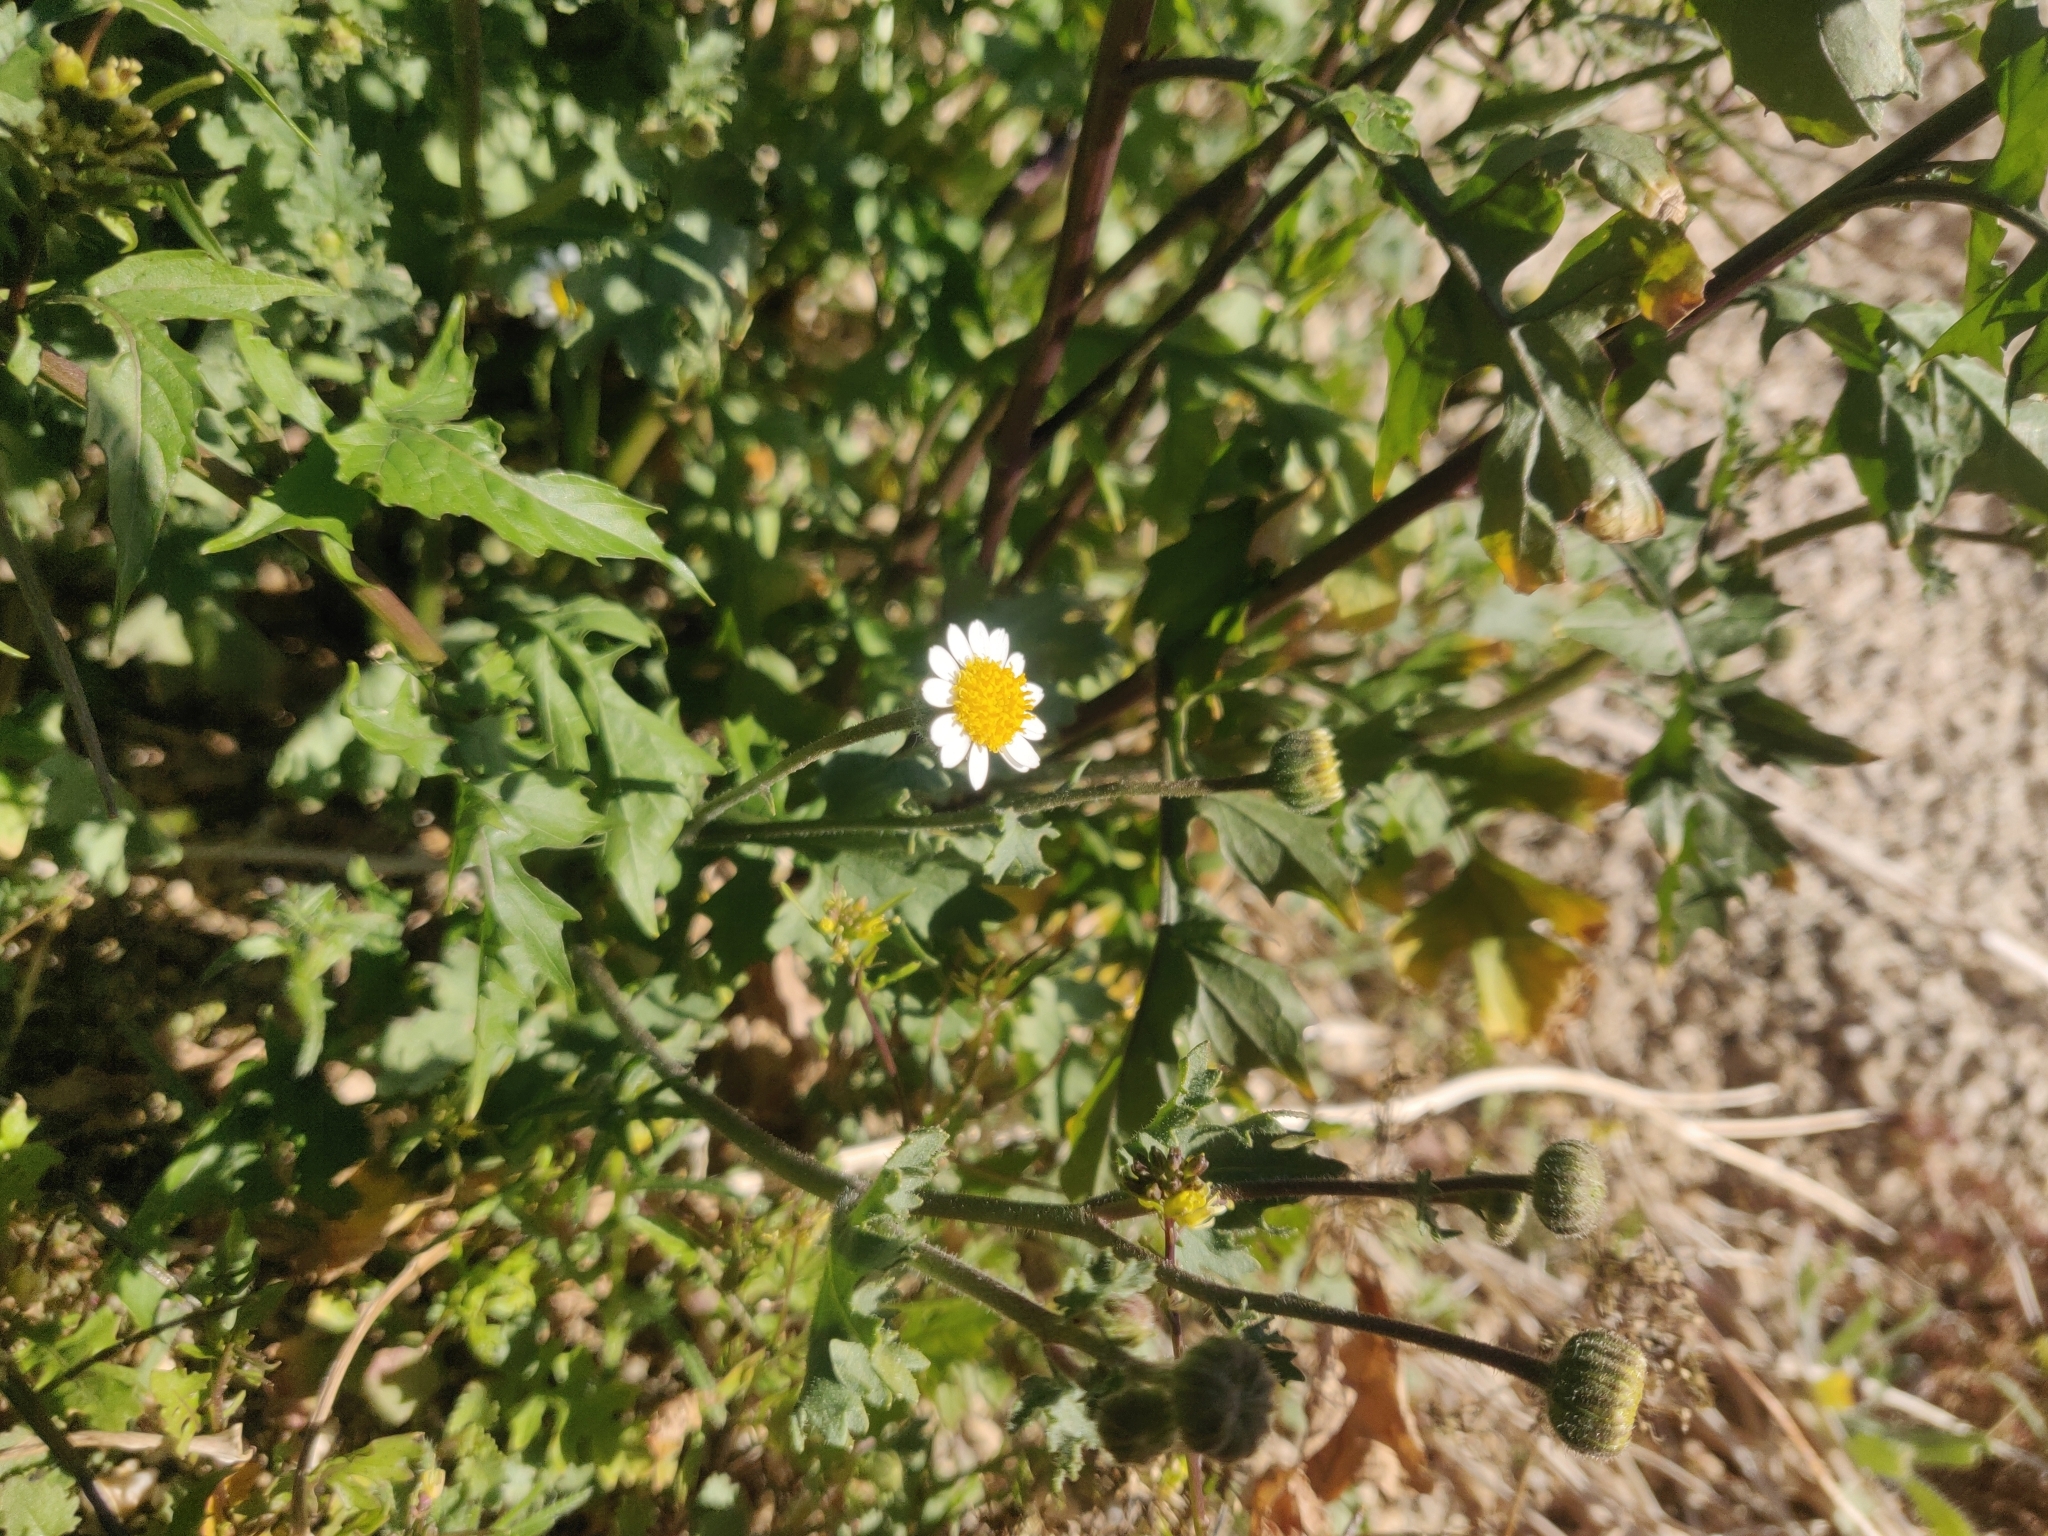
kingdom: Plantae
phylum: Tracheophyta
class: Magnoliopsida
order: Asterales
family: Asteraceae
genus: Laphamia
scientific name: Laphamia emoryi
